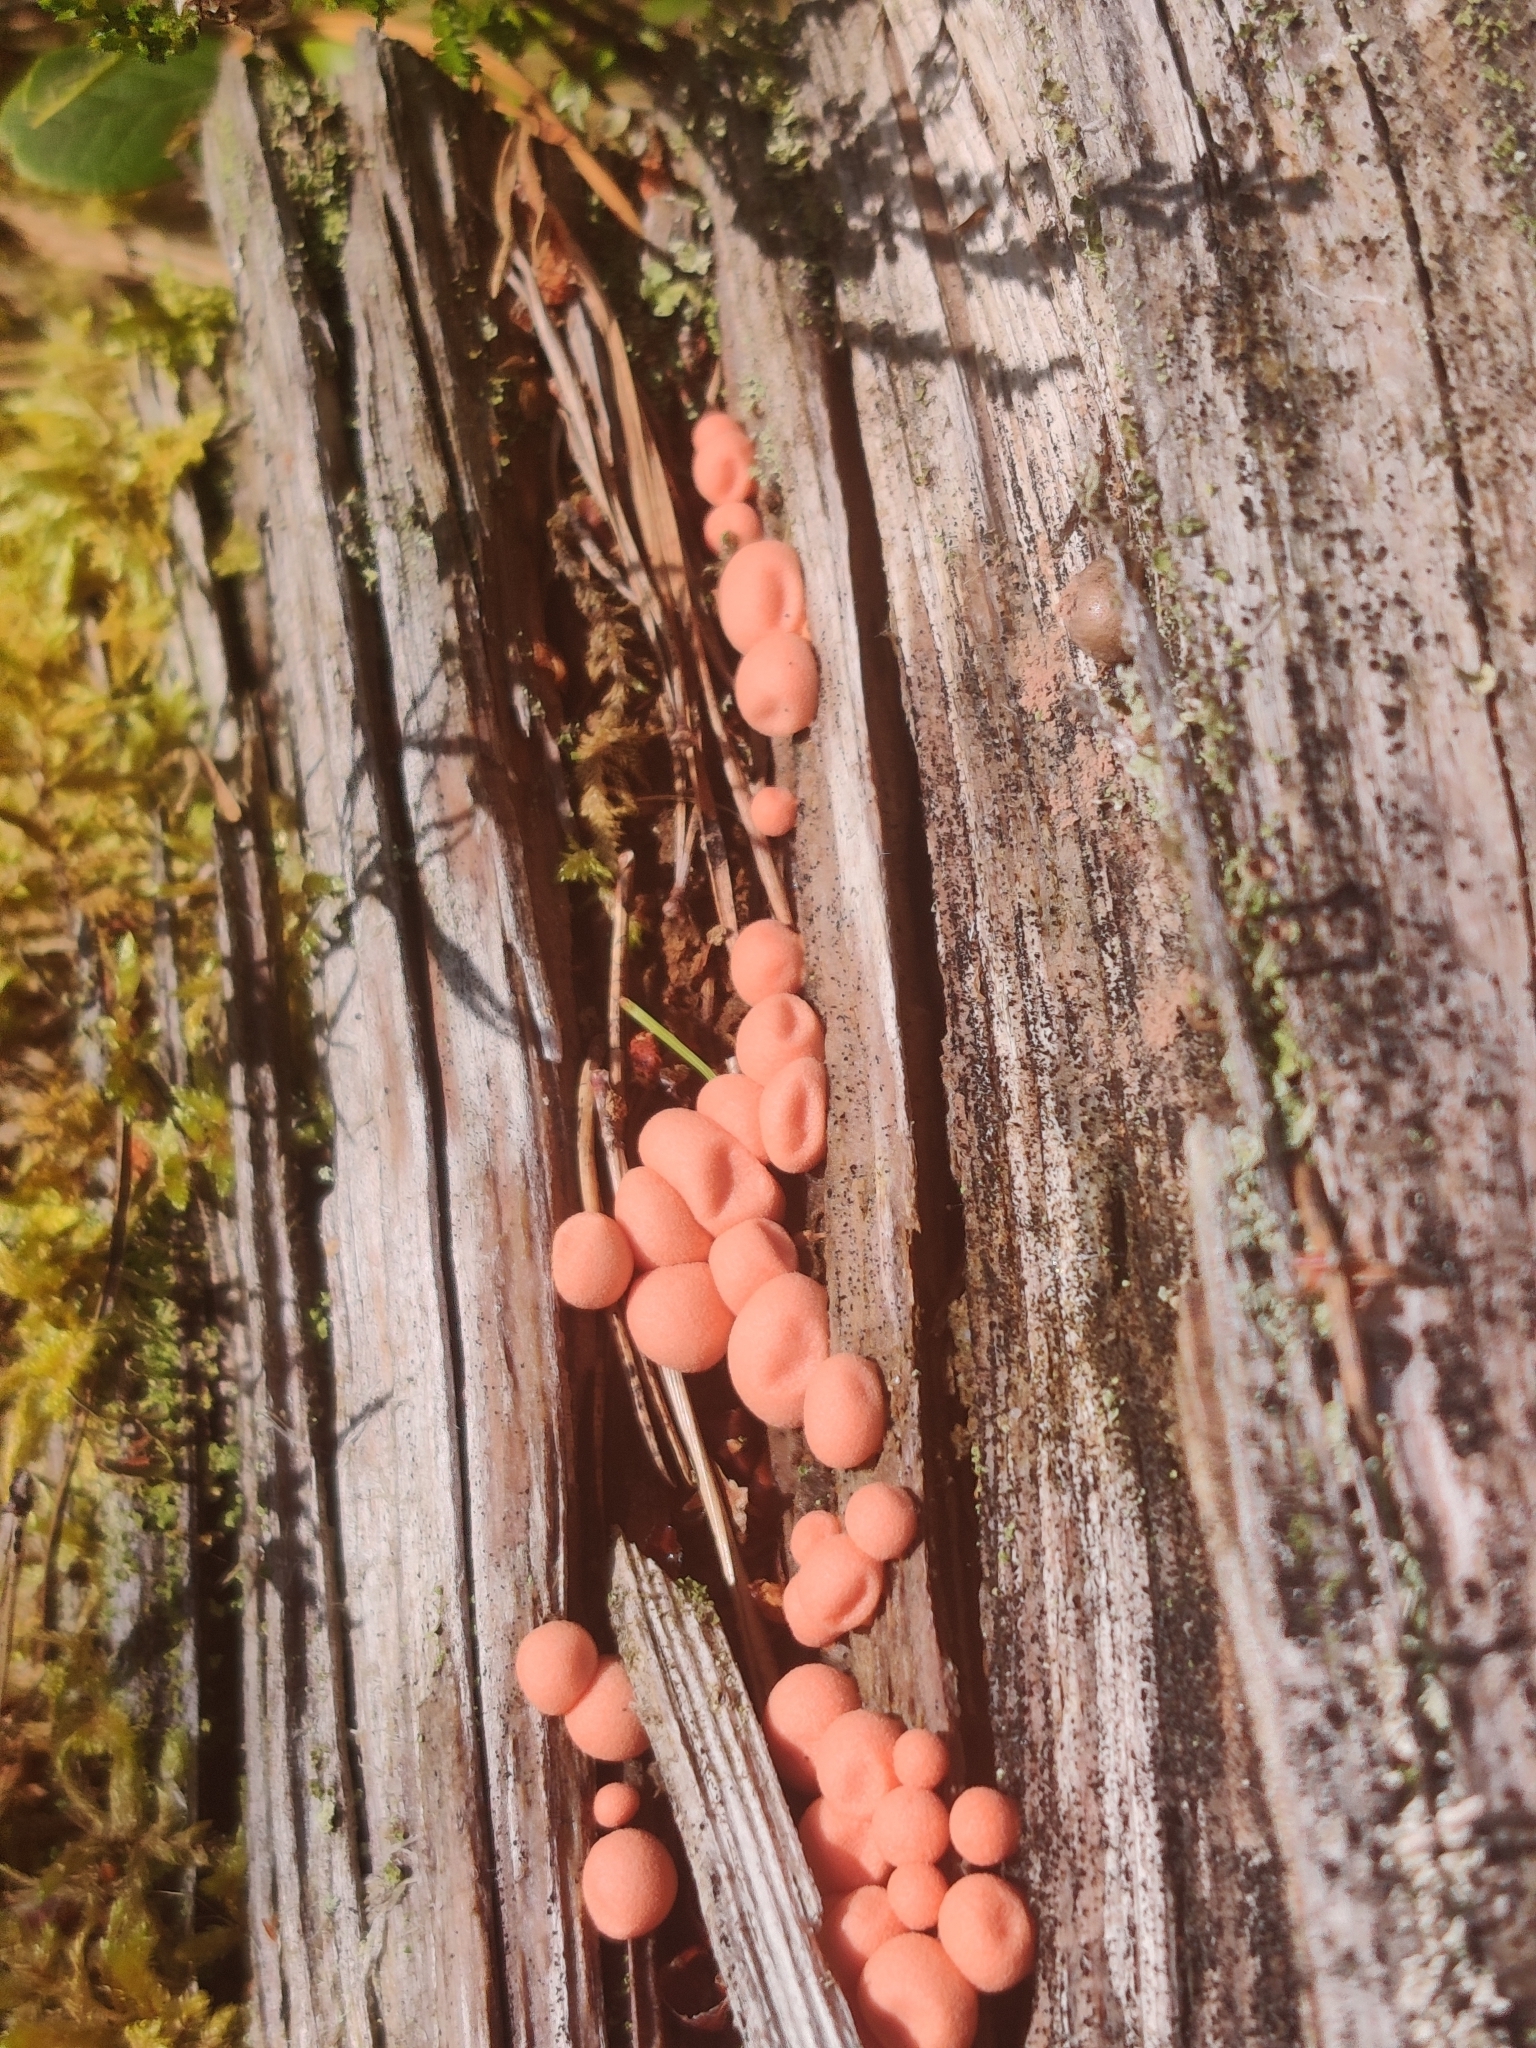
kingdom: Protozoa
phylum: Mycetozoa
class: Myxomycetes
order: Cribrariales
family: Tubiferaceae
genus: Lycogala
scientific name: Lycogala epidendrum
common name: Wolf's milk
